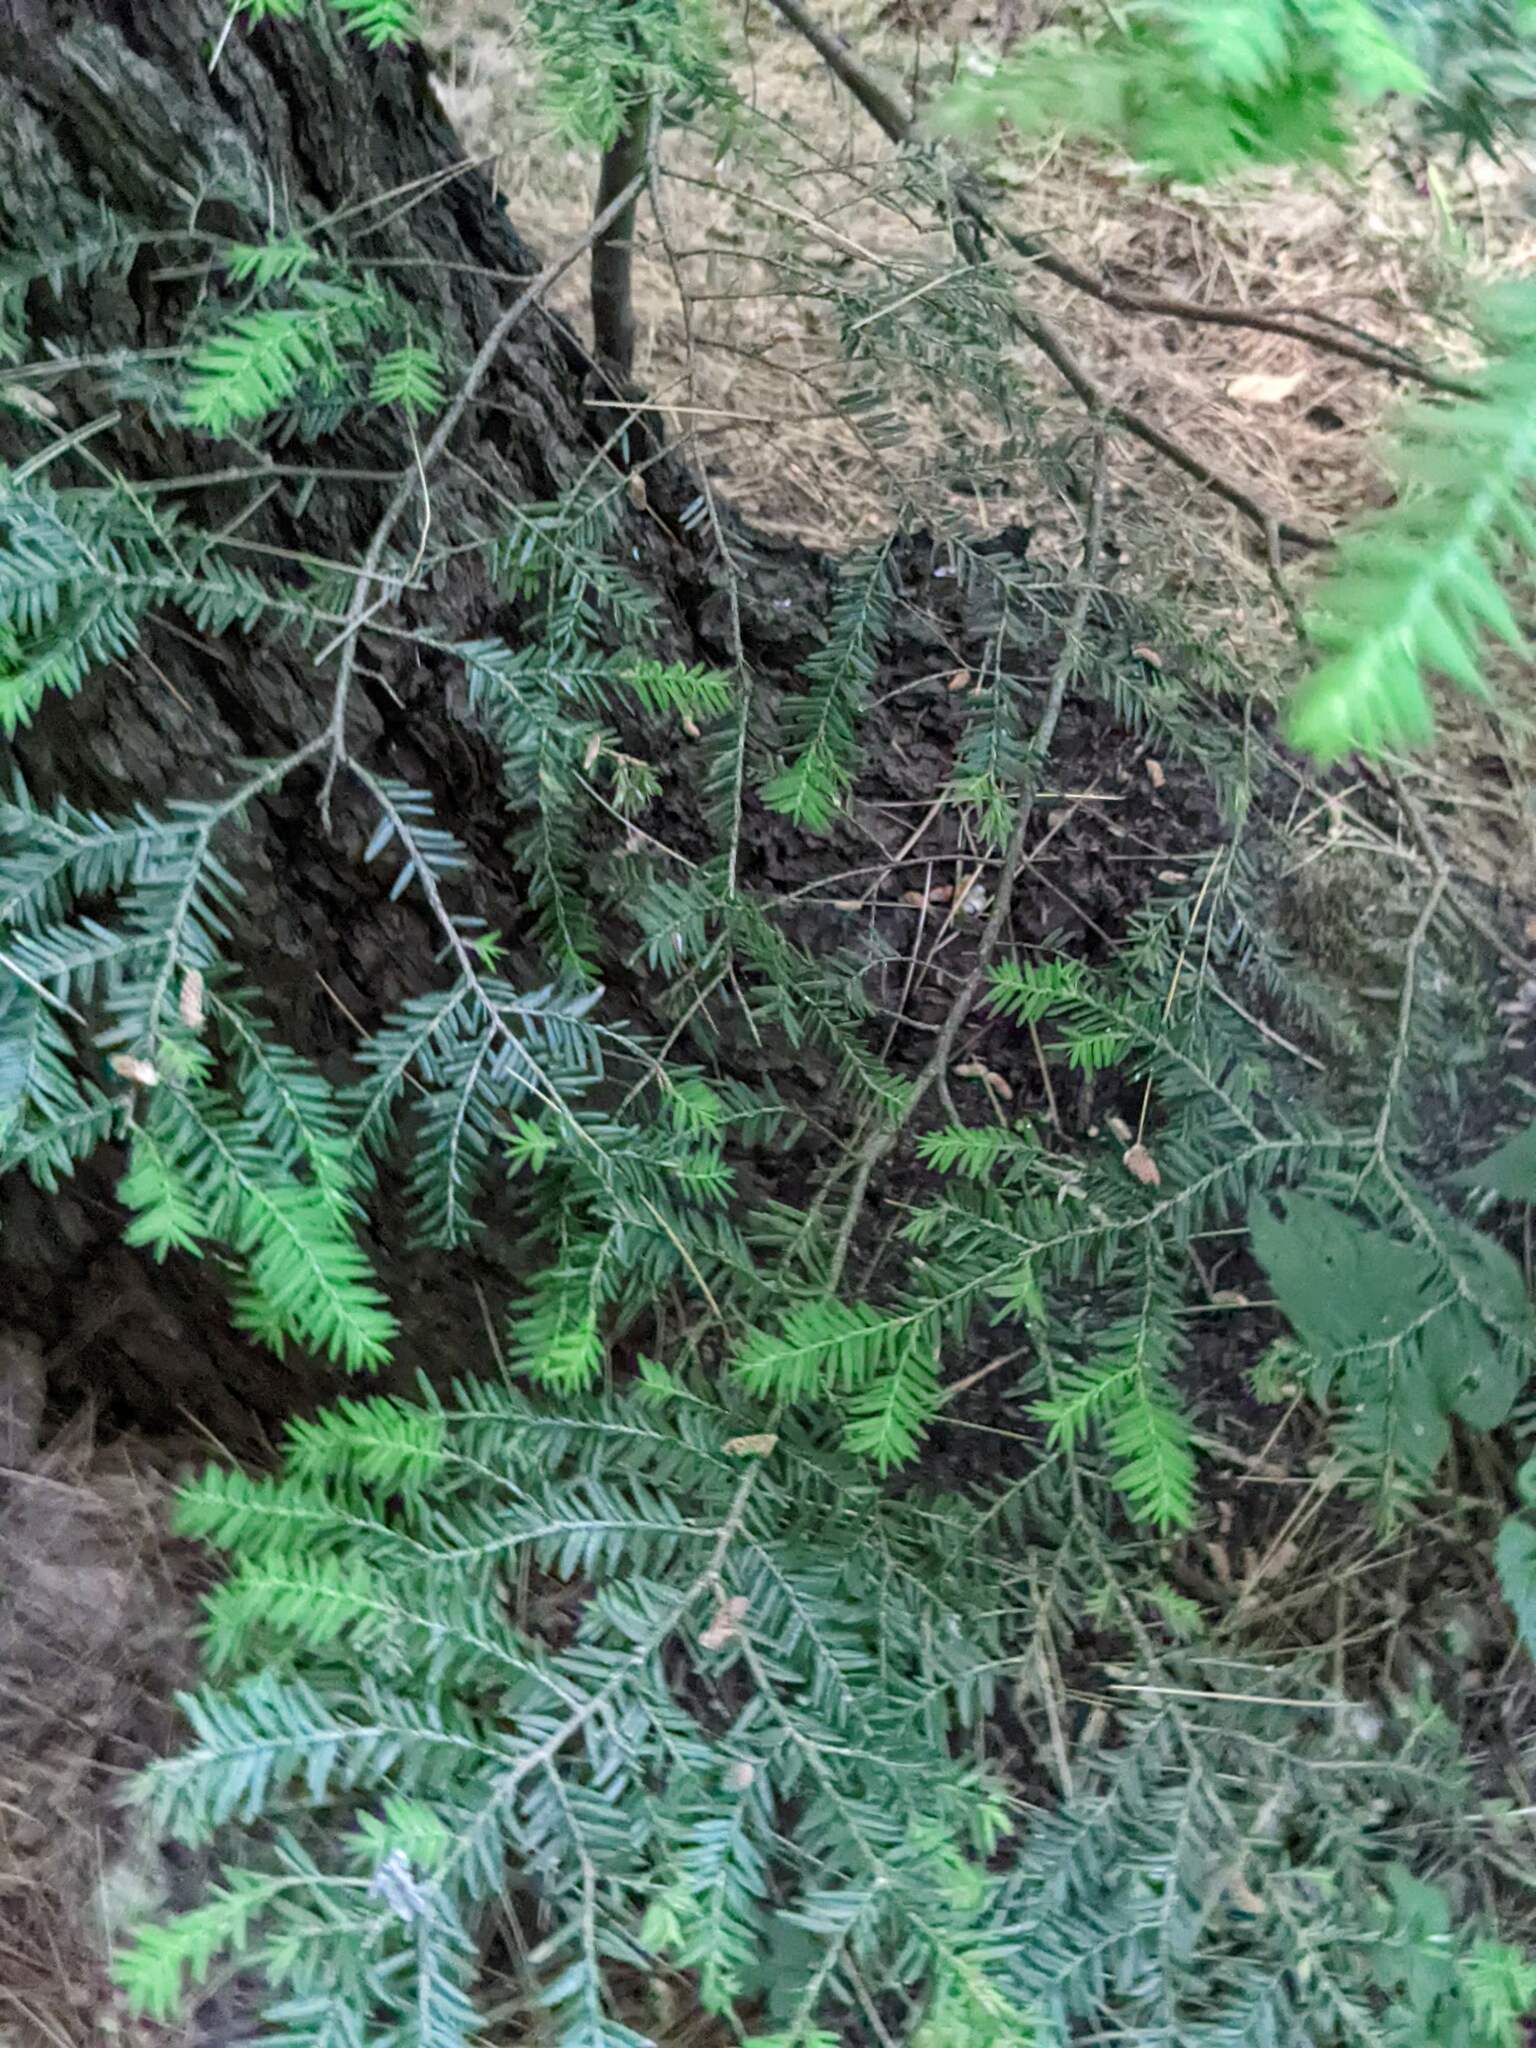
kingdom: Plantae
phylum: Tracheophyta
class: Pinopsida
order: Pinales
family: Pinaceae
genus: Tsuga
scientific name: Tsuga canadensis
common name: Eastern hemlock
